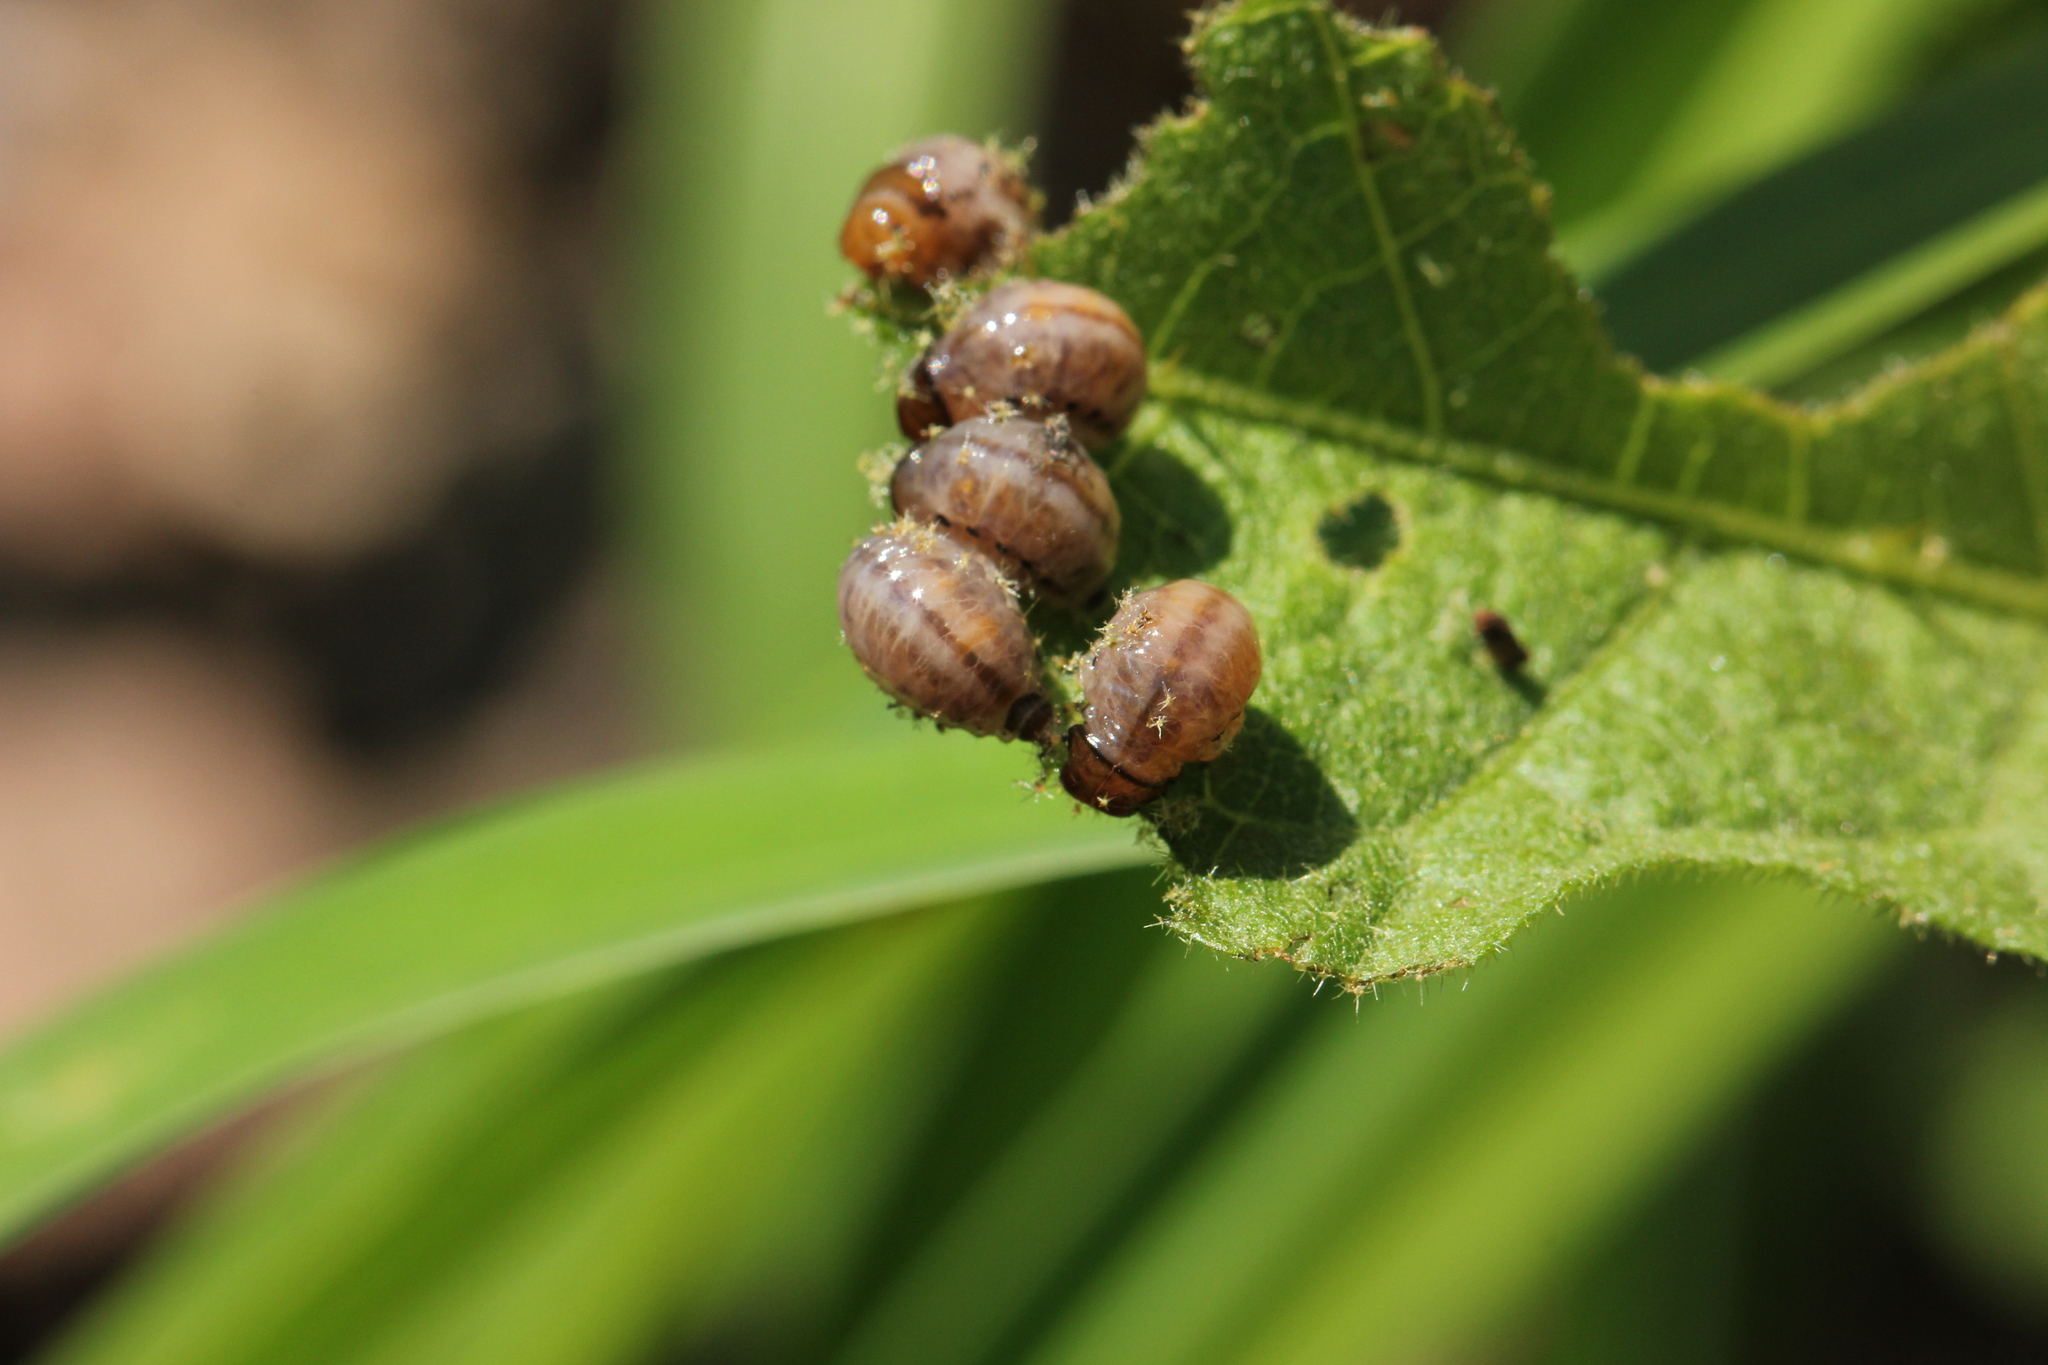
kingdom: Animalia
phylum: Arthropoda
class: Insecta
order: Coleoptera
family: Chrysomelidae
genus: Leptinotarsa
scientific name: Leptinotarsa juncta
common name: False potato beetle
